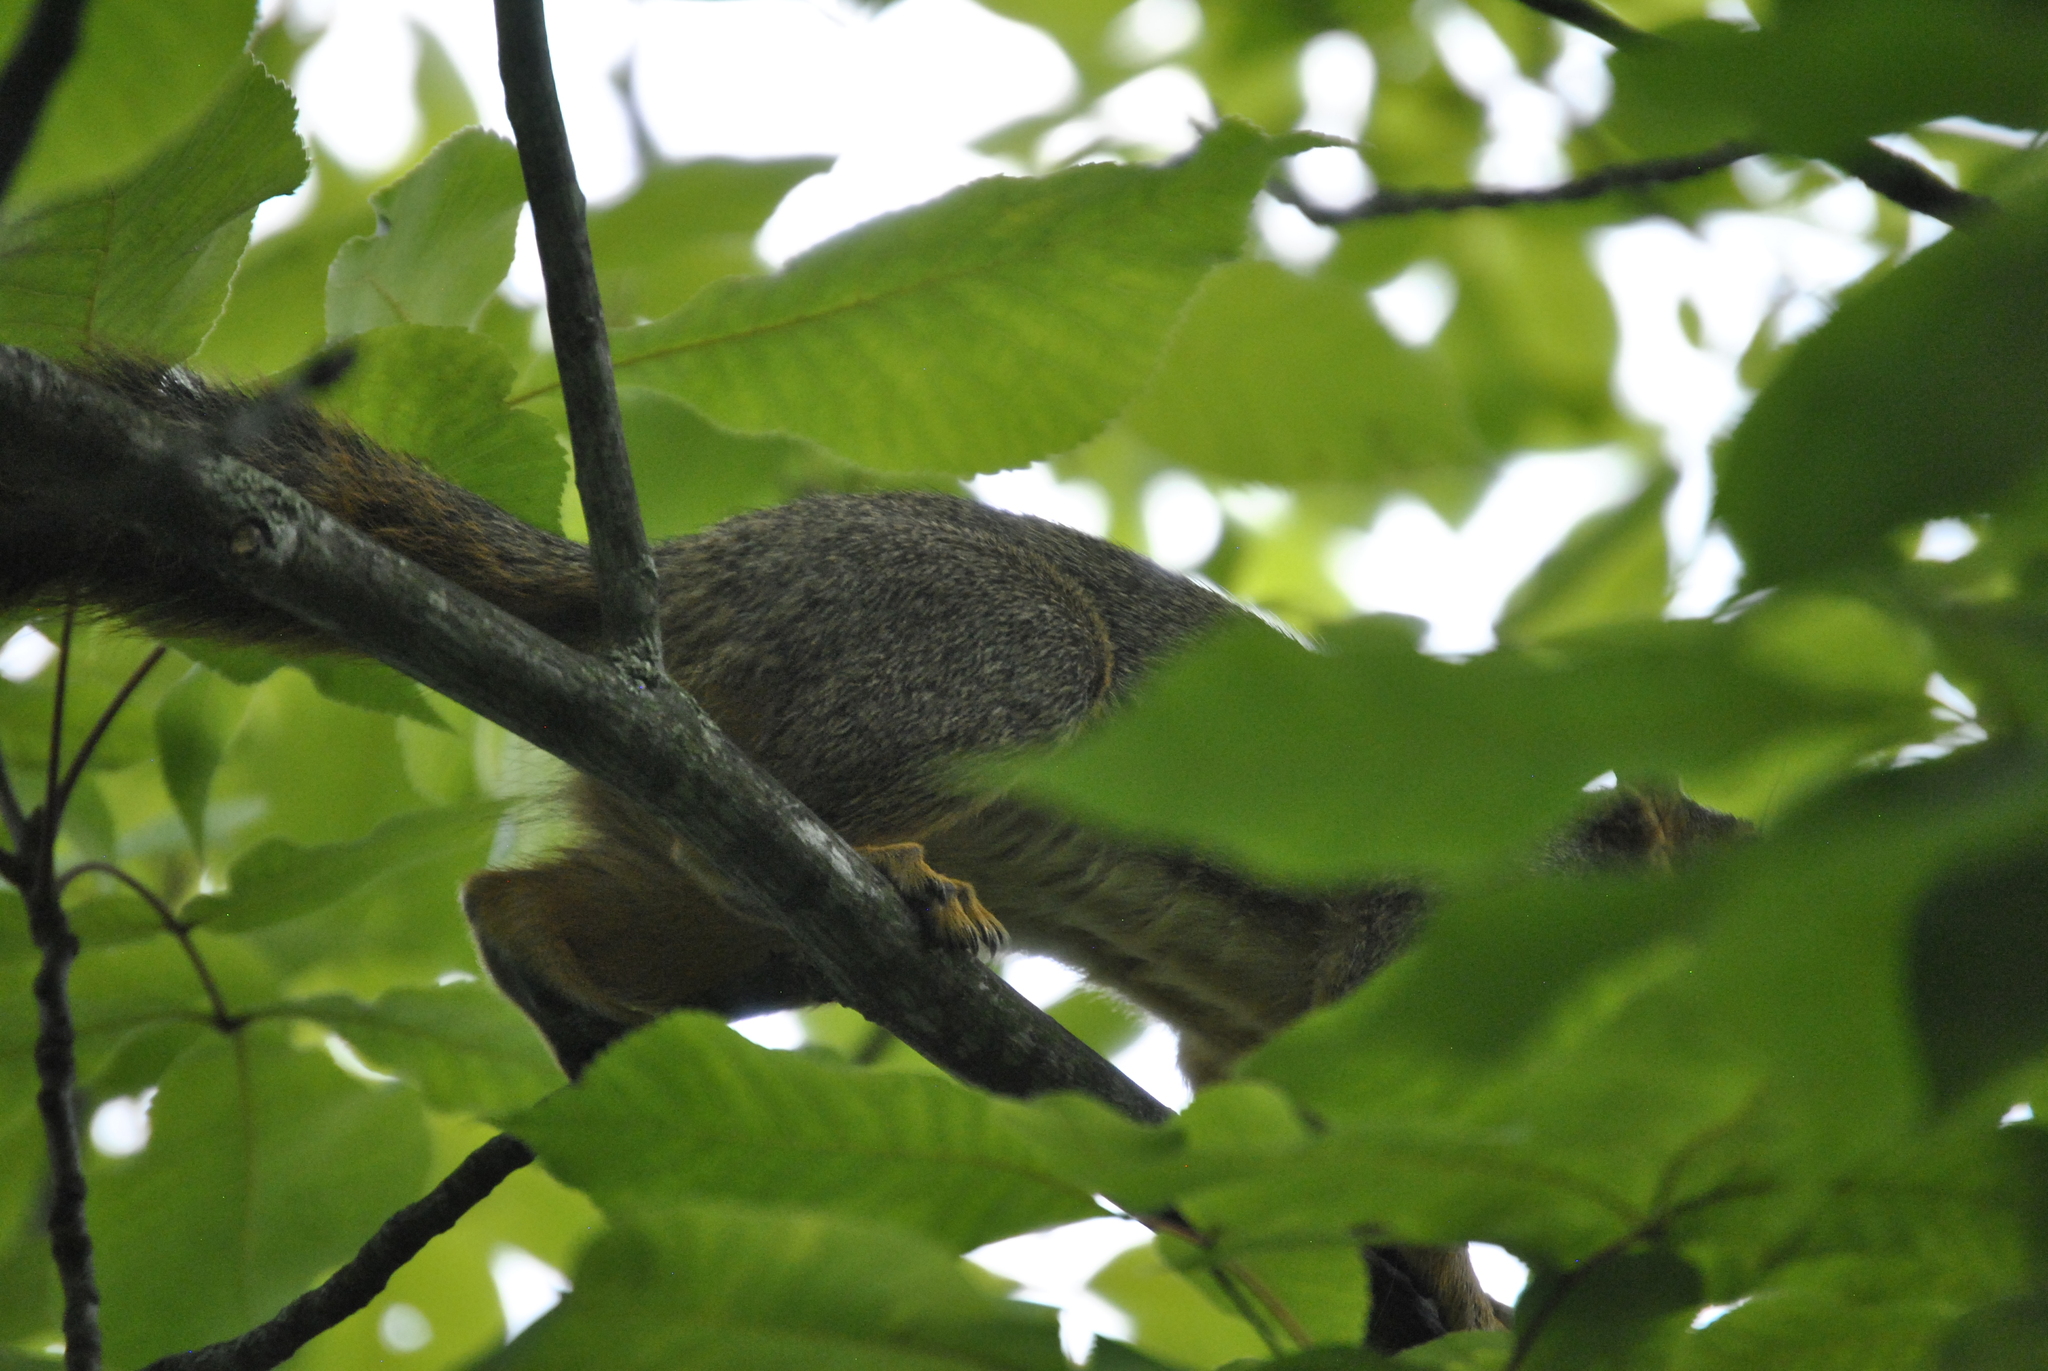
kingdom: Animalia
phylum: Chordata
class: Mammalia
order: Rodentia
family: Sciuridae
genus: Sciurus
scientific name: Sciurus niger
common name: Fox squirrel
